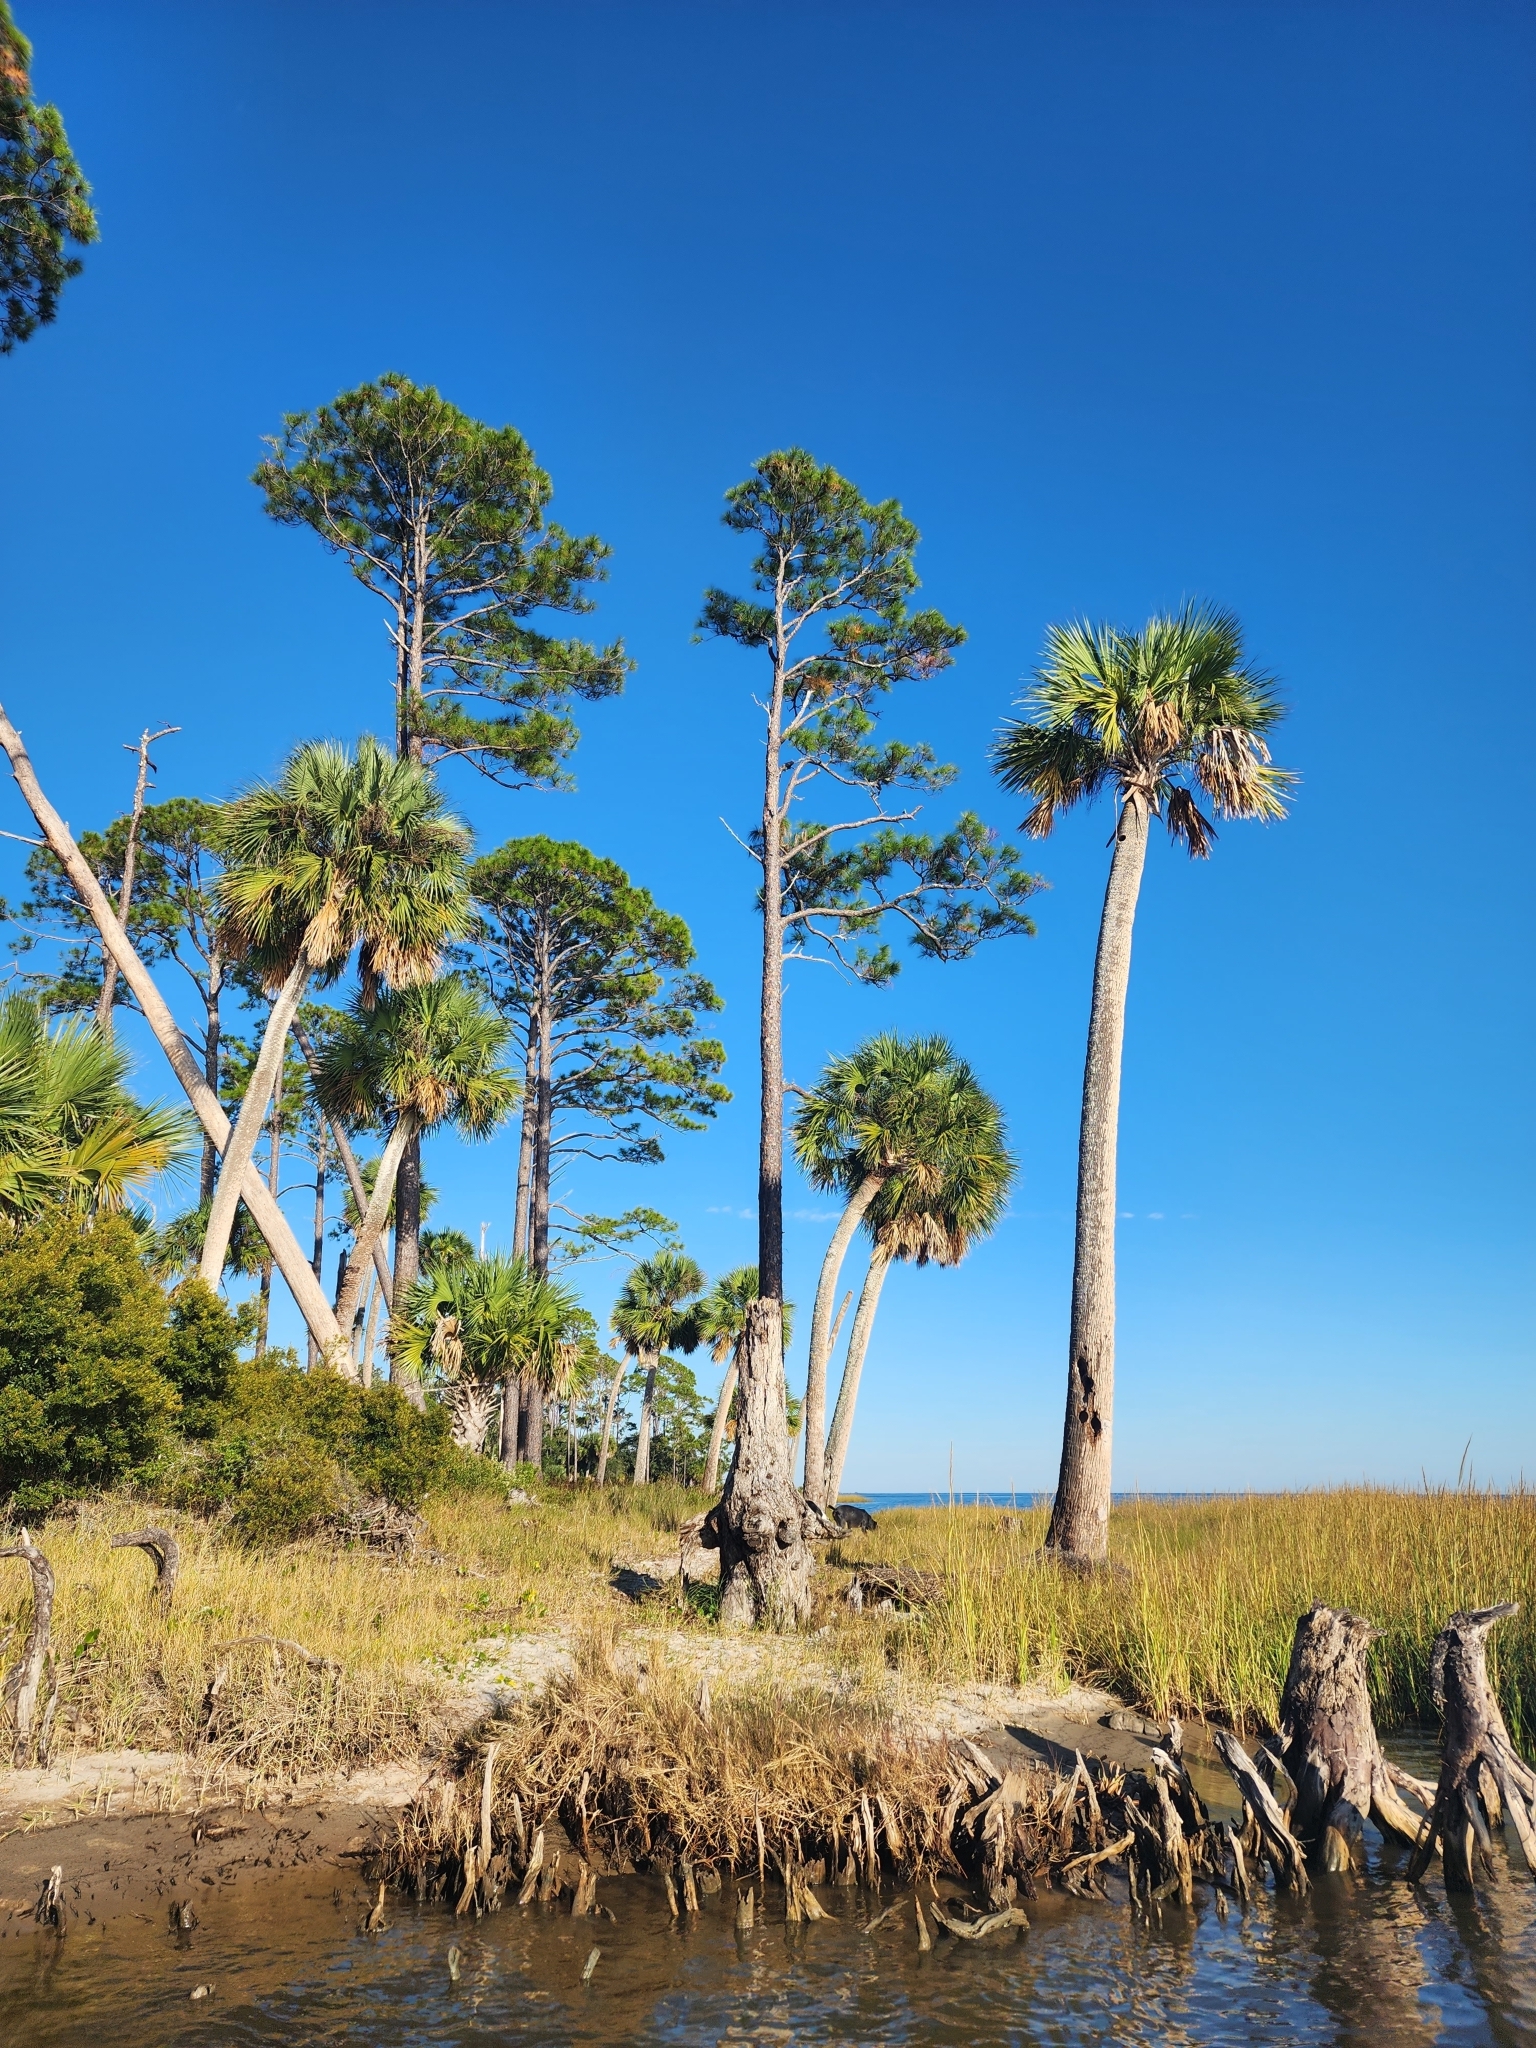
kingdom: Plantae
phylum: Tracheophyta
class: Liliopsida
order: Arecales
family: Arecaceae
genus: Sabal
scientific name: Sabal palmetto
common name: Blue palmetto
